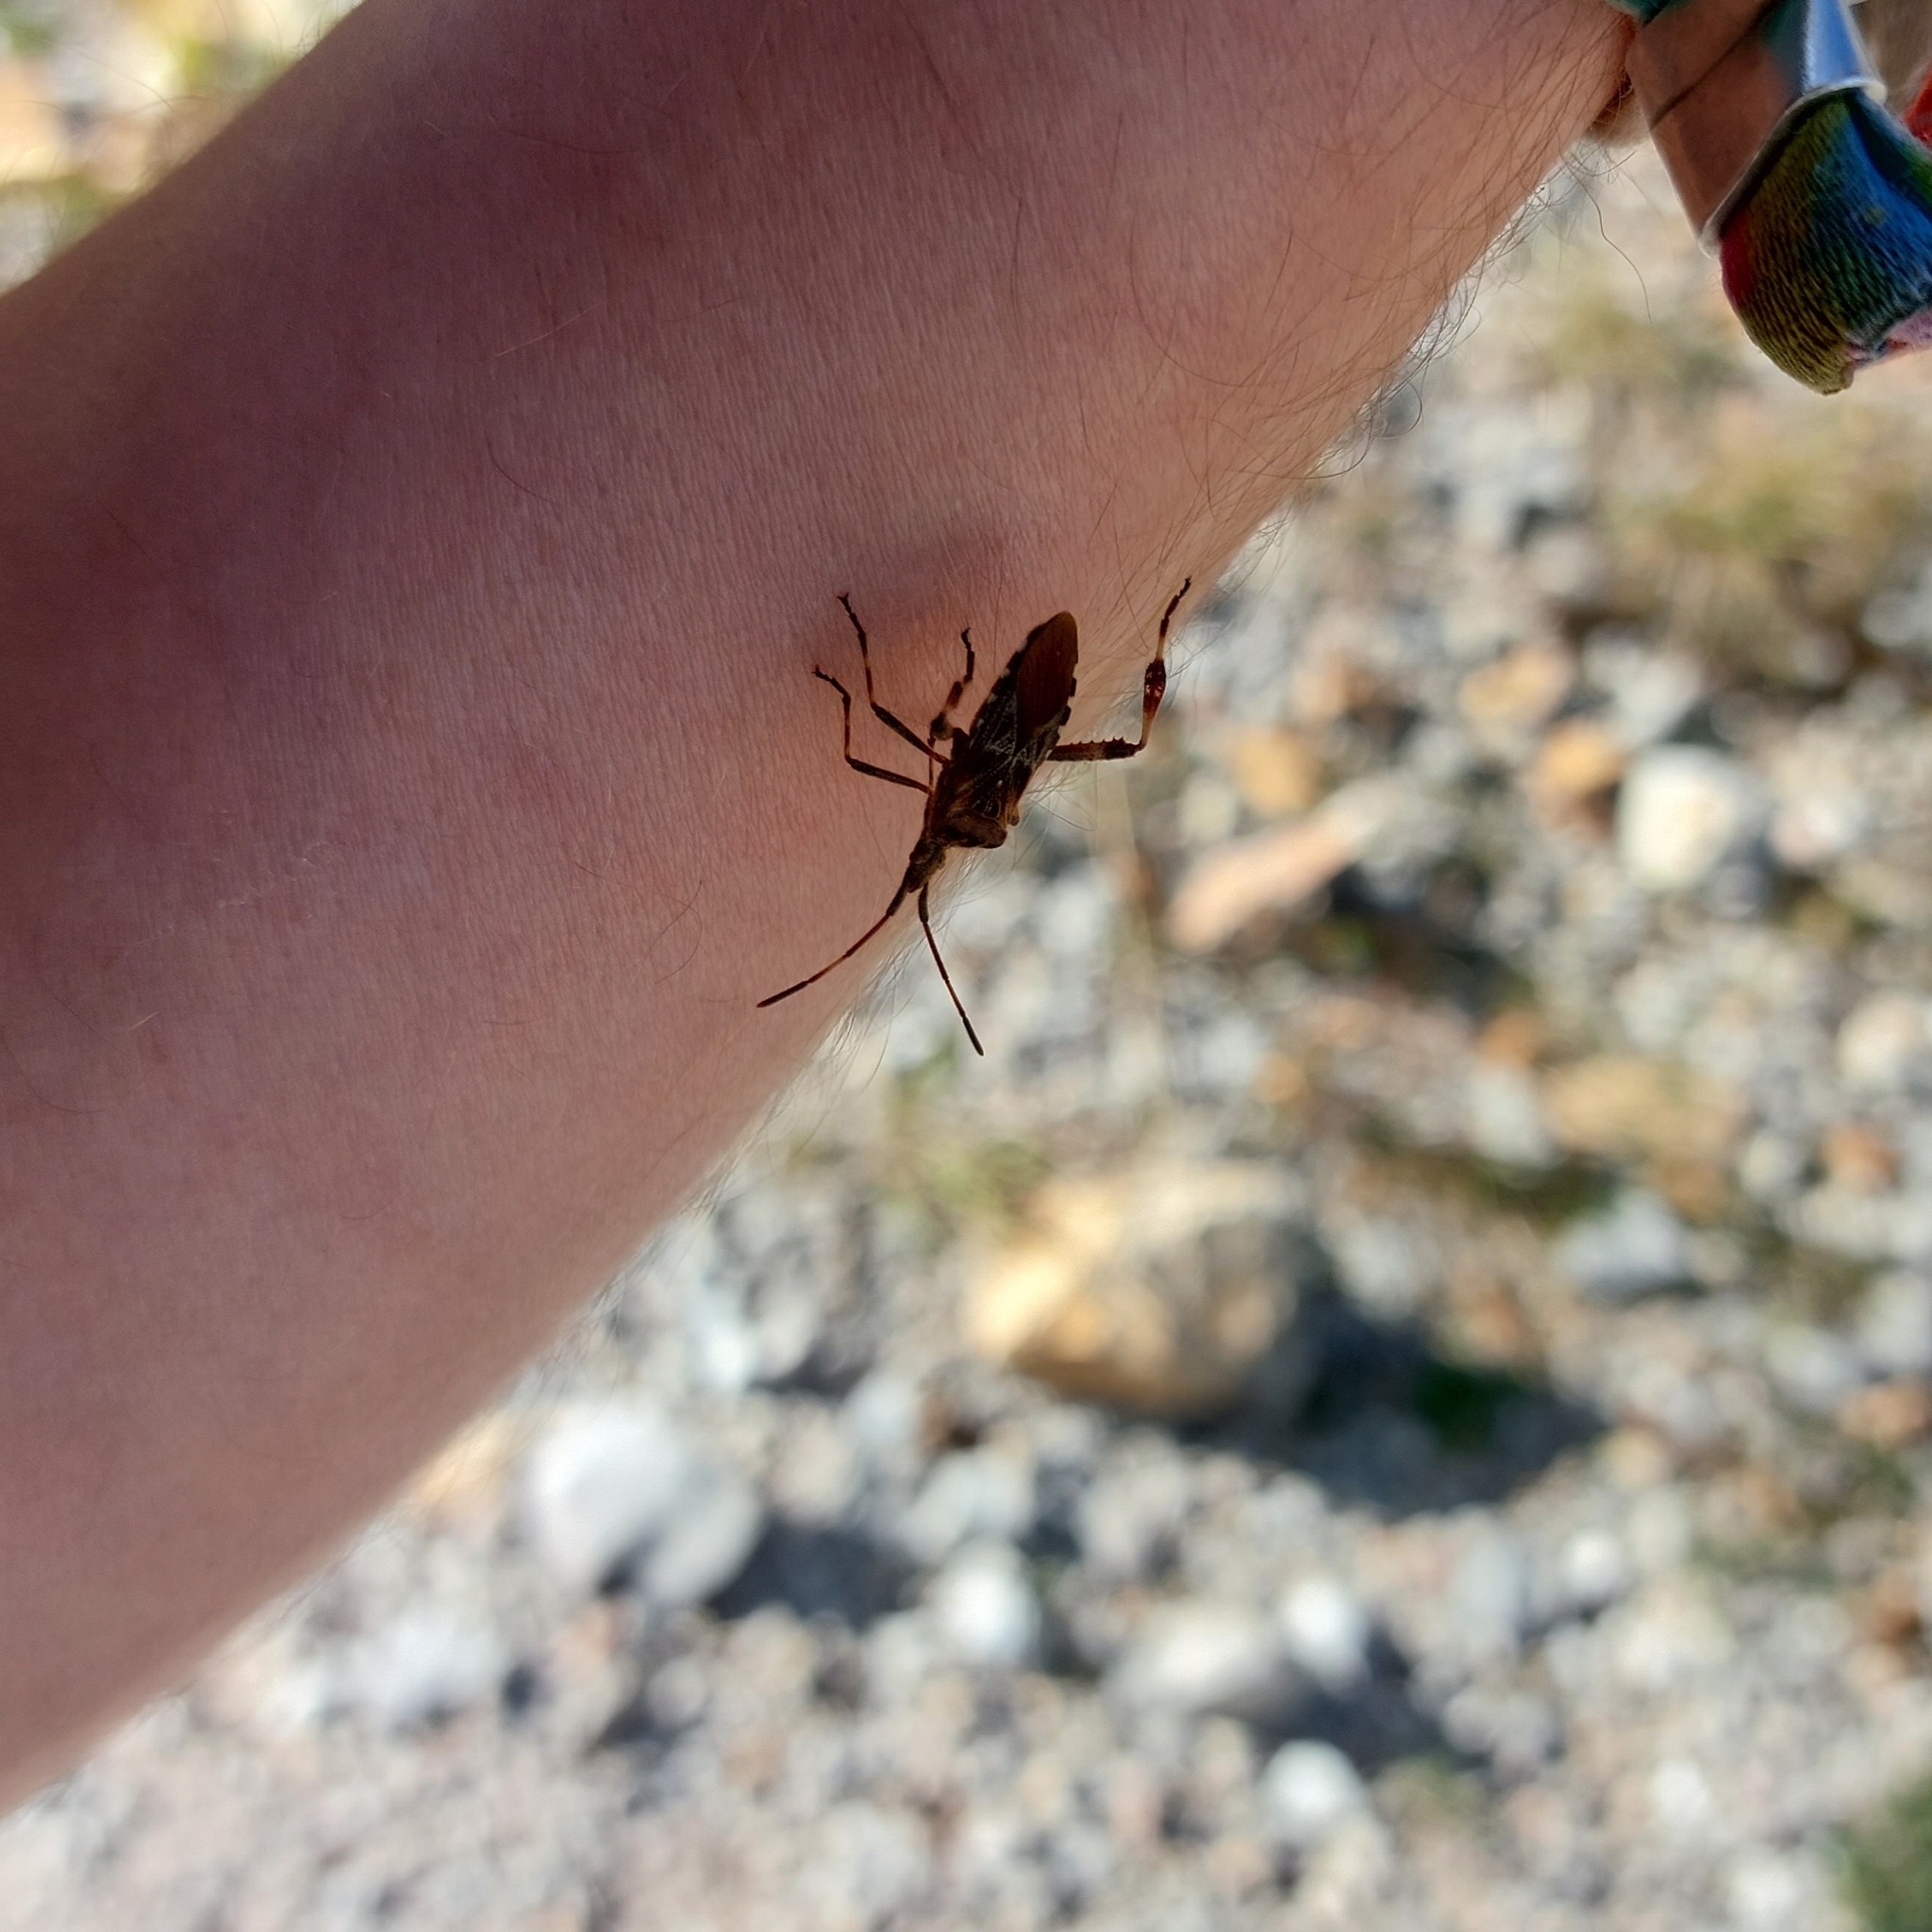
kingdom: Animalia
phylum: Arthropoda
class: Insecta
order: Hemiptera
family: Coreidae
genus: Leptoglossus
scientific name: Leptoglossus occidentalis
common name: Western conifer-seed bug
